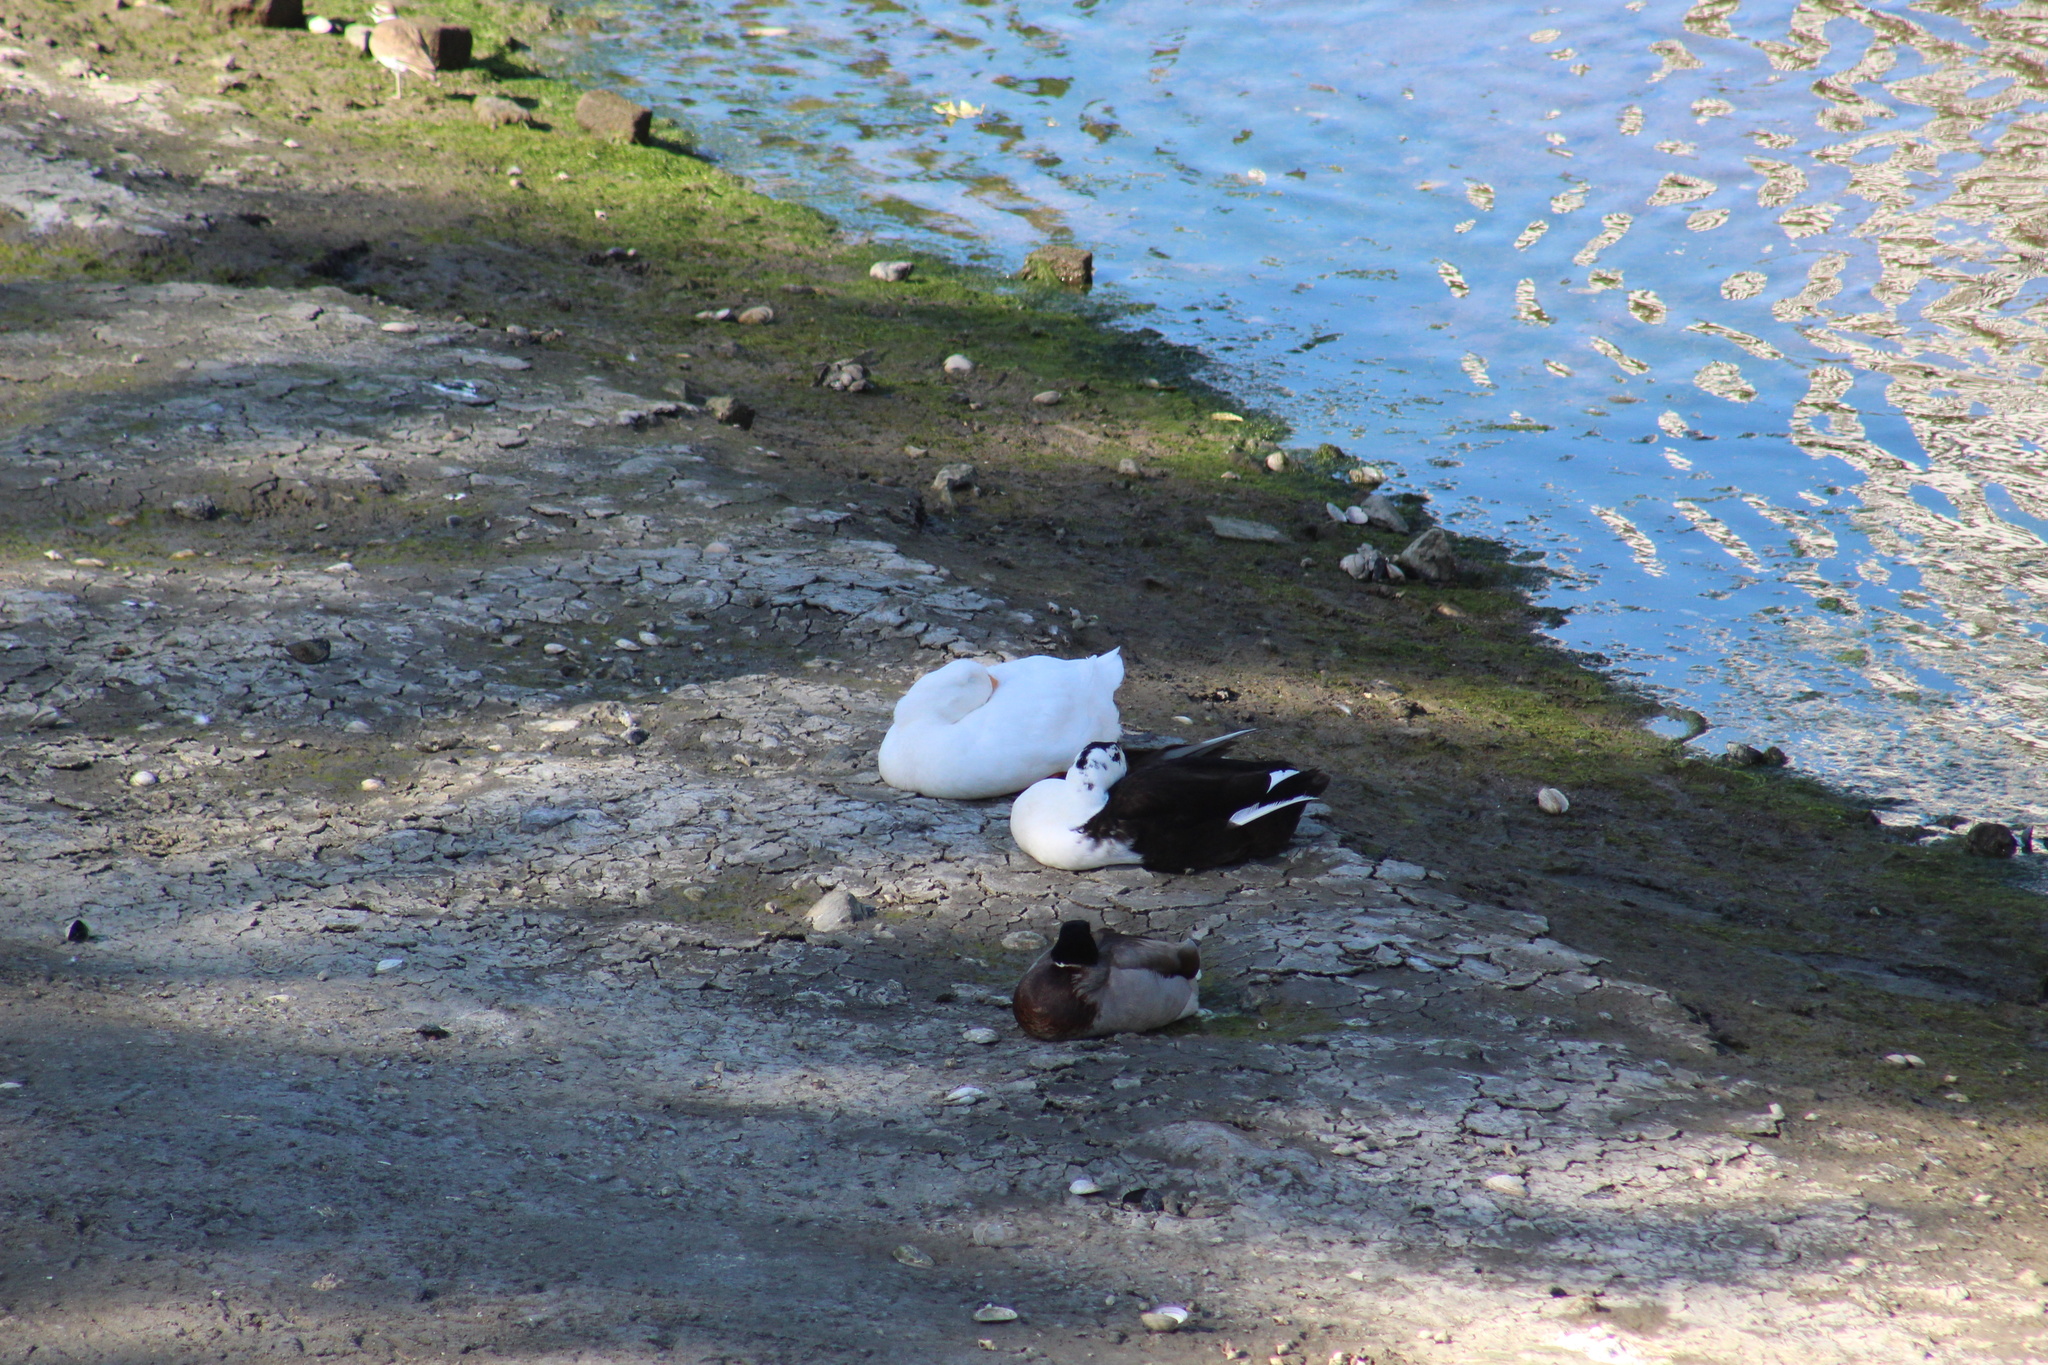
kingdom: Animalia
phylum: Chordata
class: Aves
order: Anseriformes
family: Anatidae
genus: Anas
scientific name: Anas platyrhynchos
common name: Mallard
